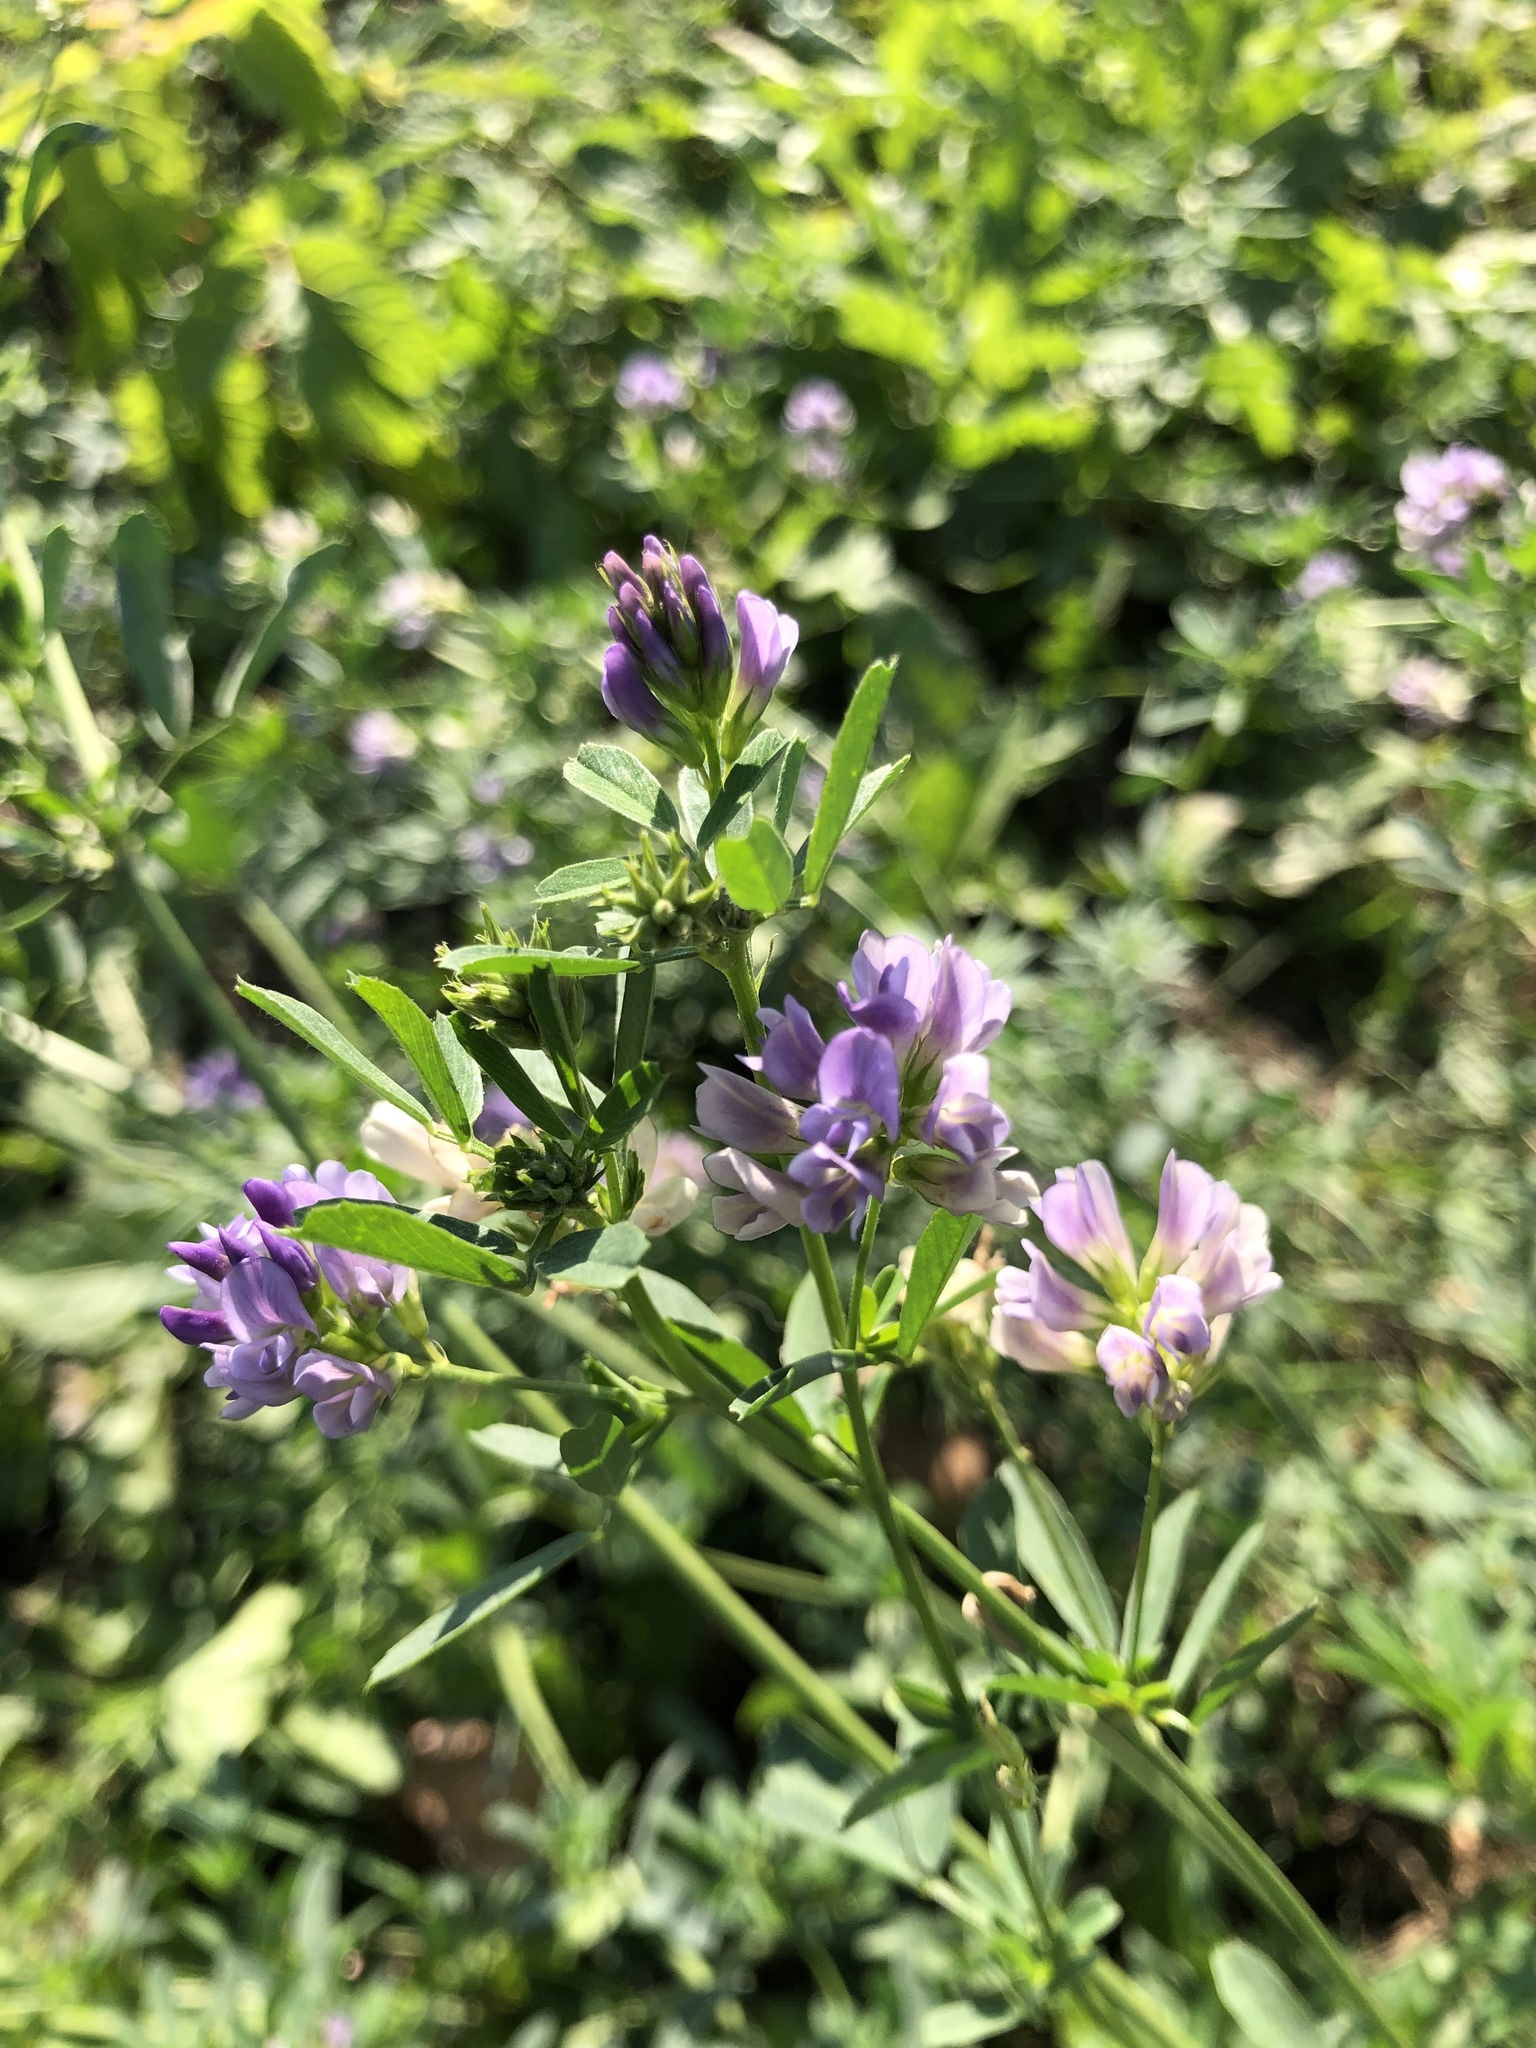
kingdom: Plantae
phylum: Tracheophyta
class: Magnoliopsida
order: Fabales
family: Fabaceae
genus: Medicago
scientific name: Medicago sativa
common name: Alfalfa
